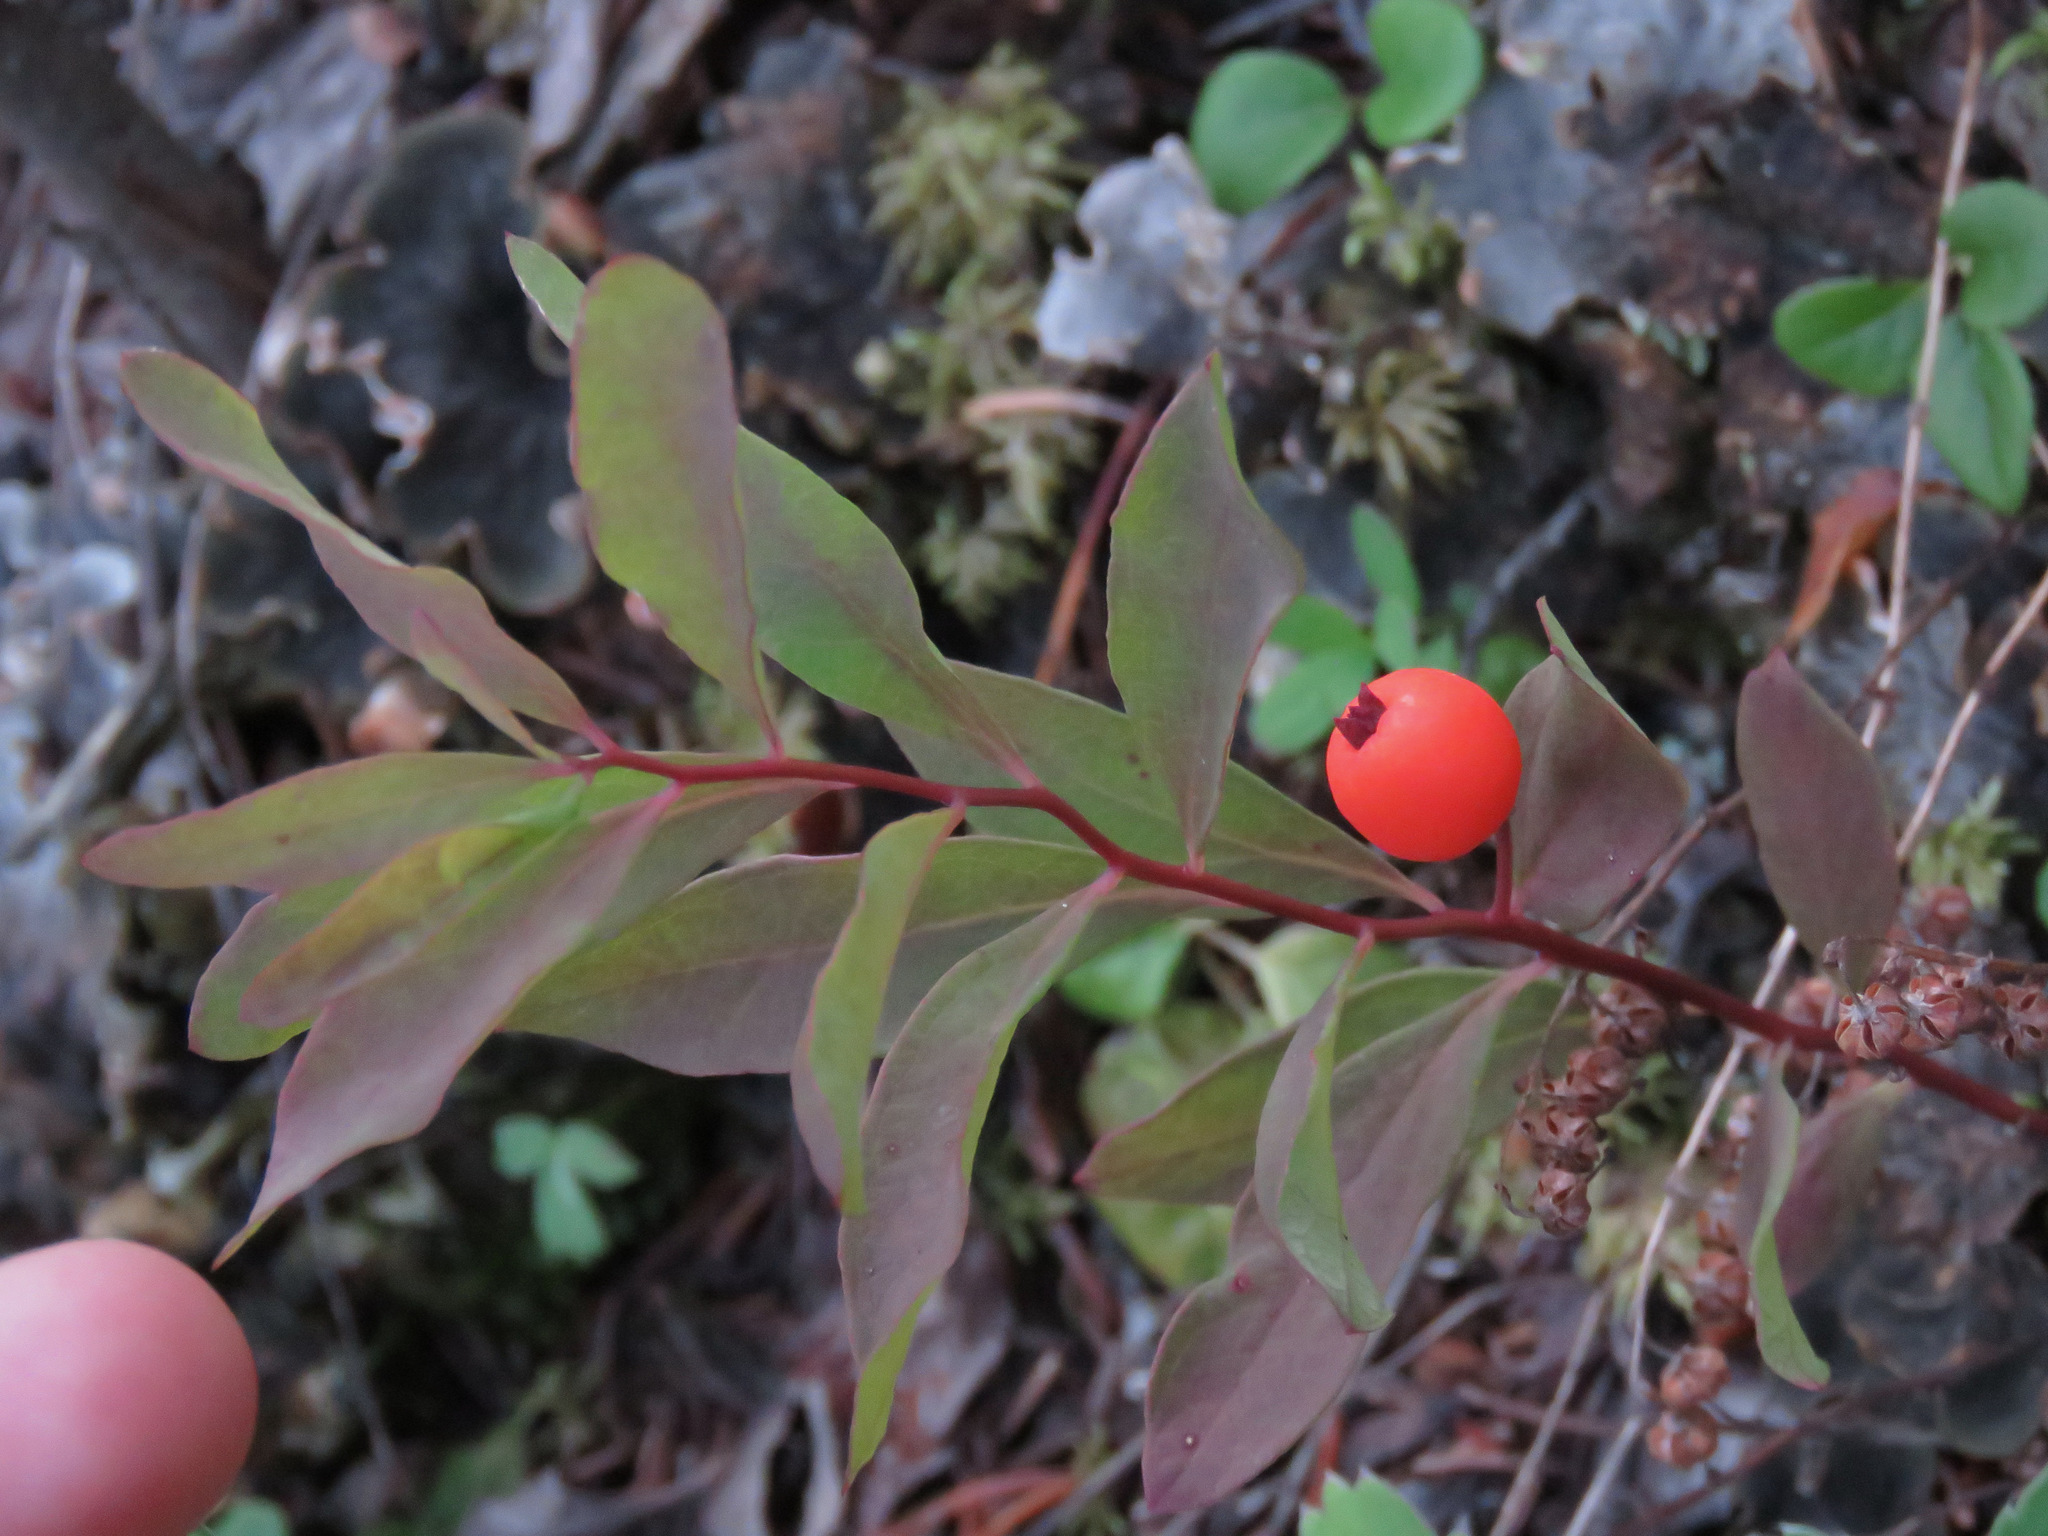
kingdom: Plantae
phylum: Tracheophyta
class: Magnoliopsida
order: Santalales
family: Comandraceae
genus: Geocaulon
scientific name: Geocaulon lividum
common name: Earthberry
